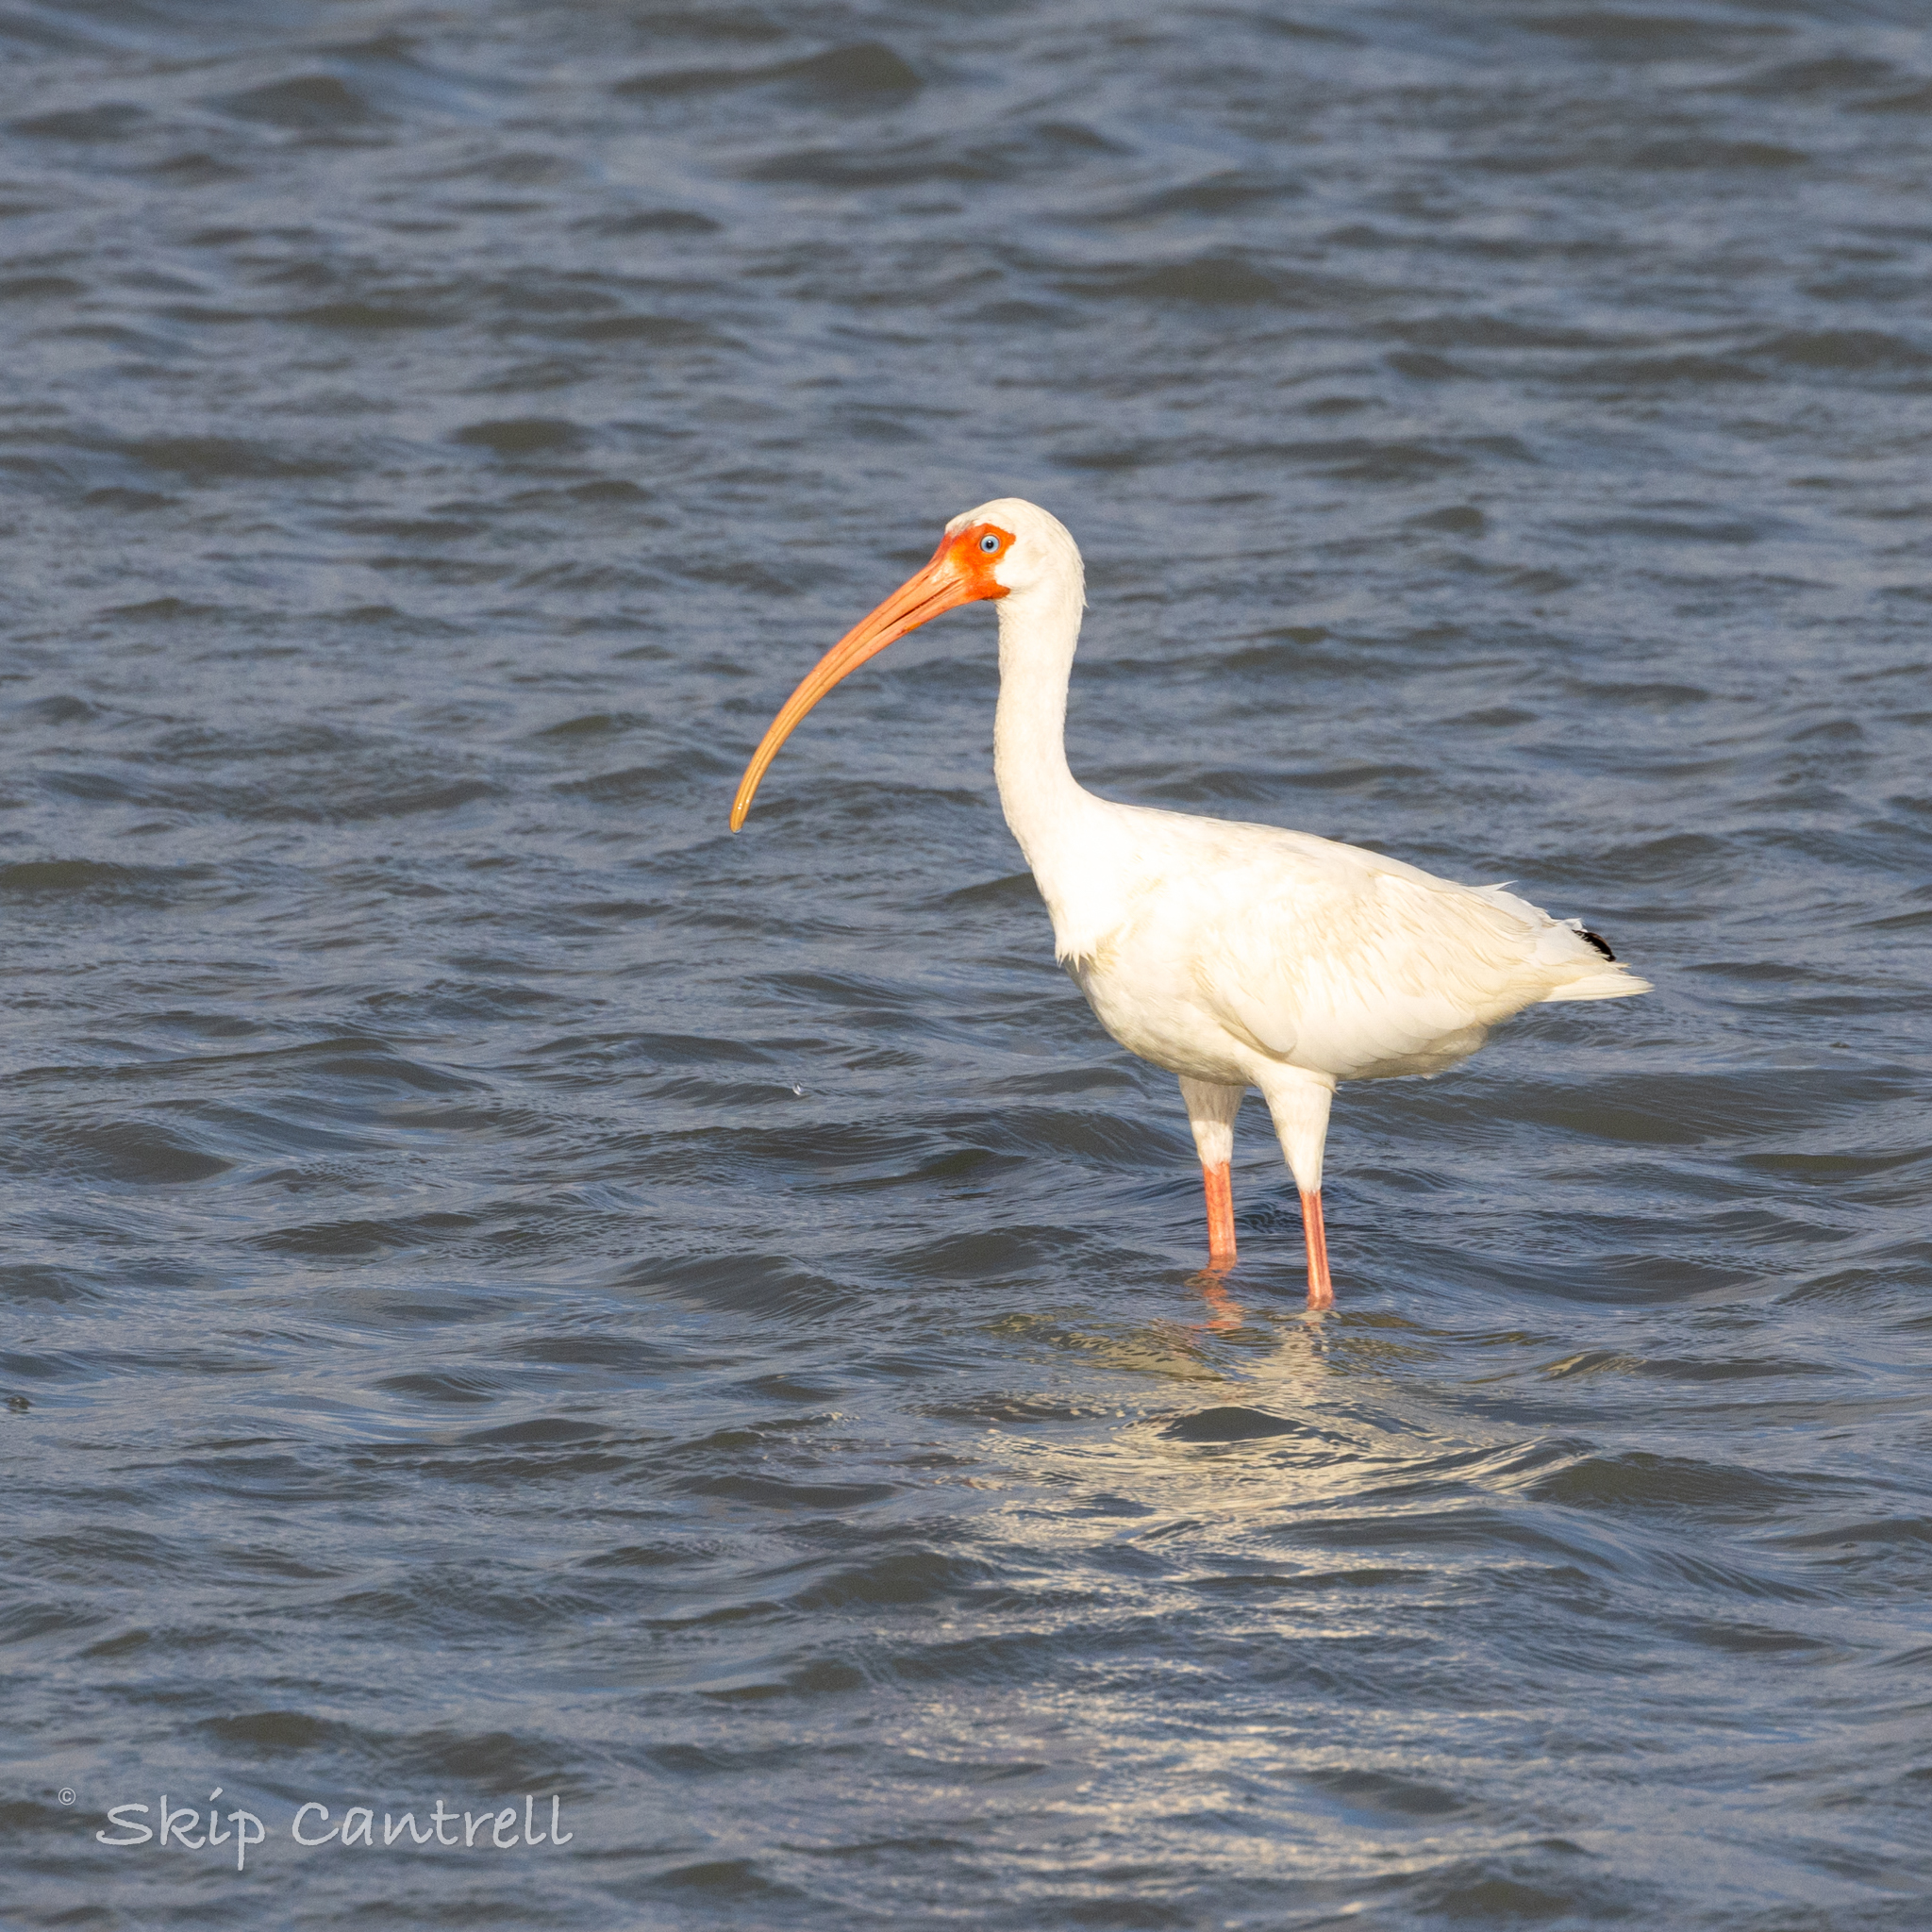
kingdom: Animalia
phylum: Chordata
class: Aves
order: Pelecaniformes
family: Threskiornithidae
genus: Eudocimus
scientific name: Eudocimus albus
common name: White ibis
